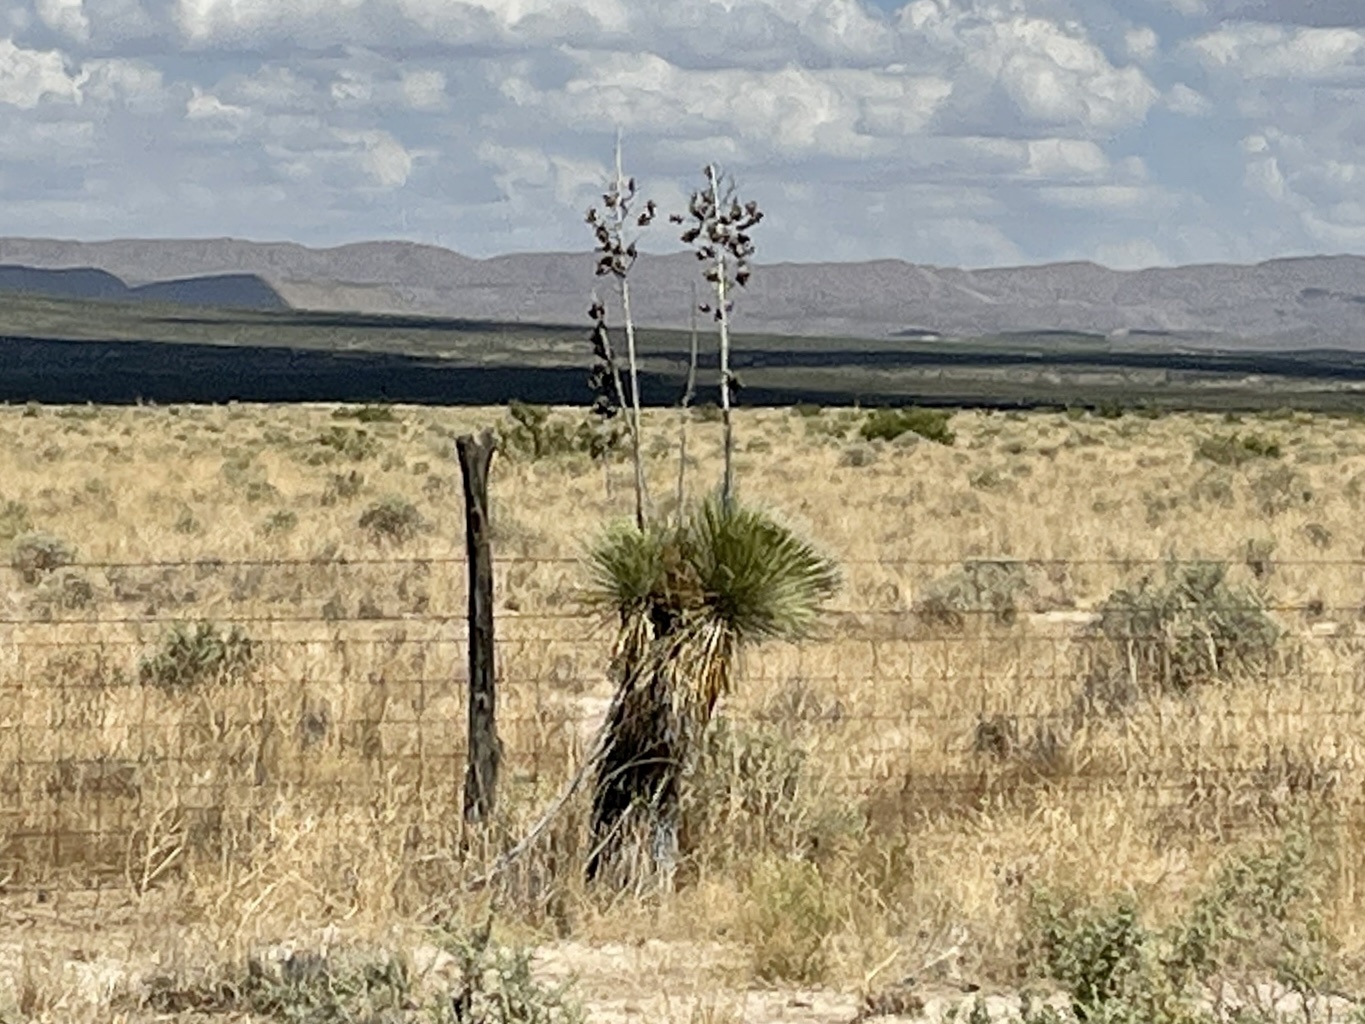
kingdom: Plantae
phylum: Tracheophyta
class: Liliopsida
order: Asparagales
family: Asparagaceae
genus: Yucca
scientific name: Yucca elata
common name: Palmella
